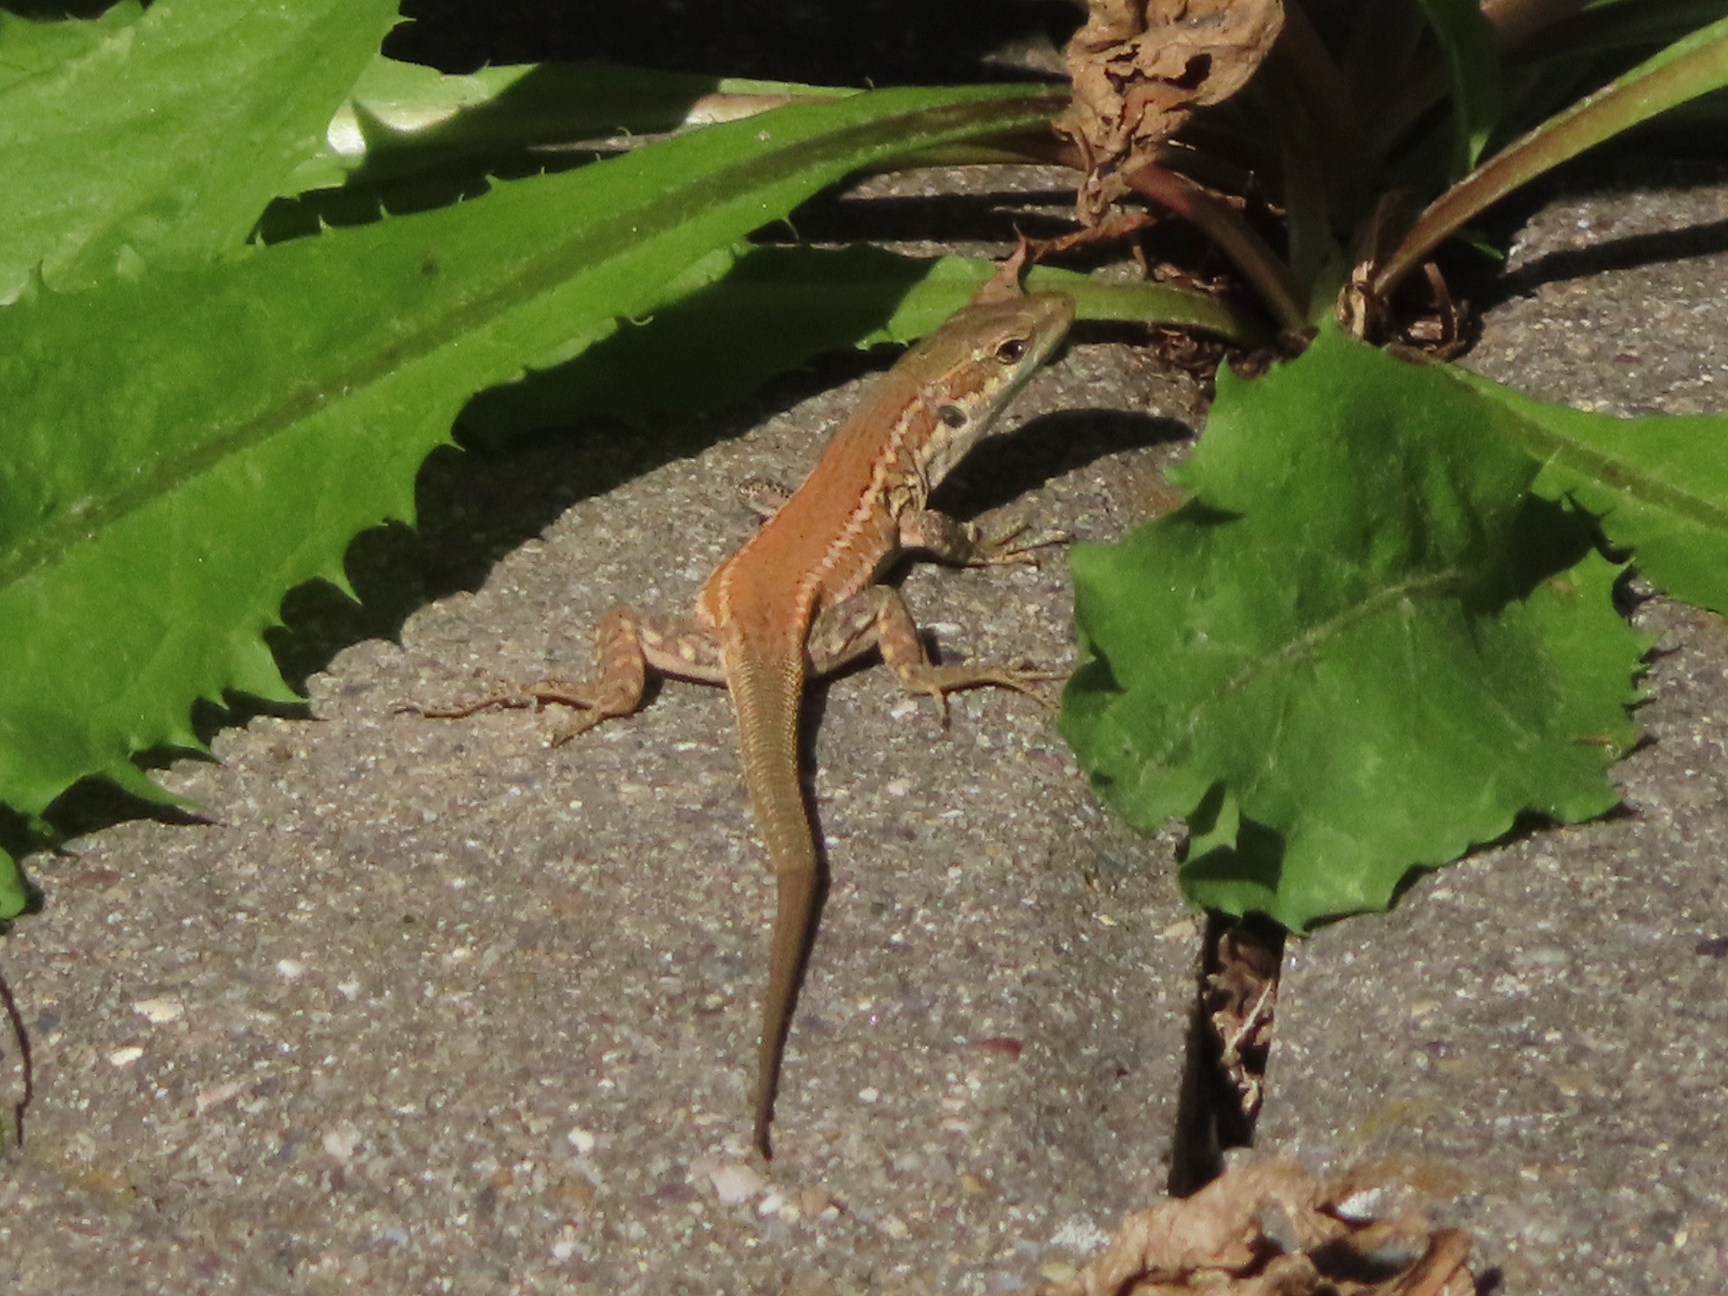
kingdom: Animalia
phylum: Chordata
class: Squamata
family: Lacertidae
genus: Podarcis
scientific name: Podarcis siculus
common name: Italian wall lizard
